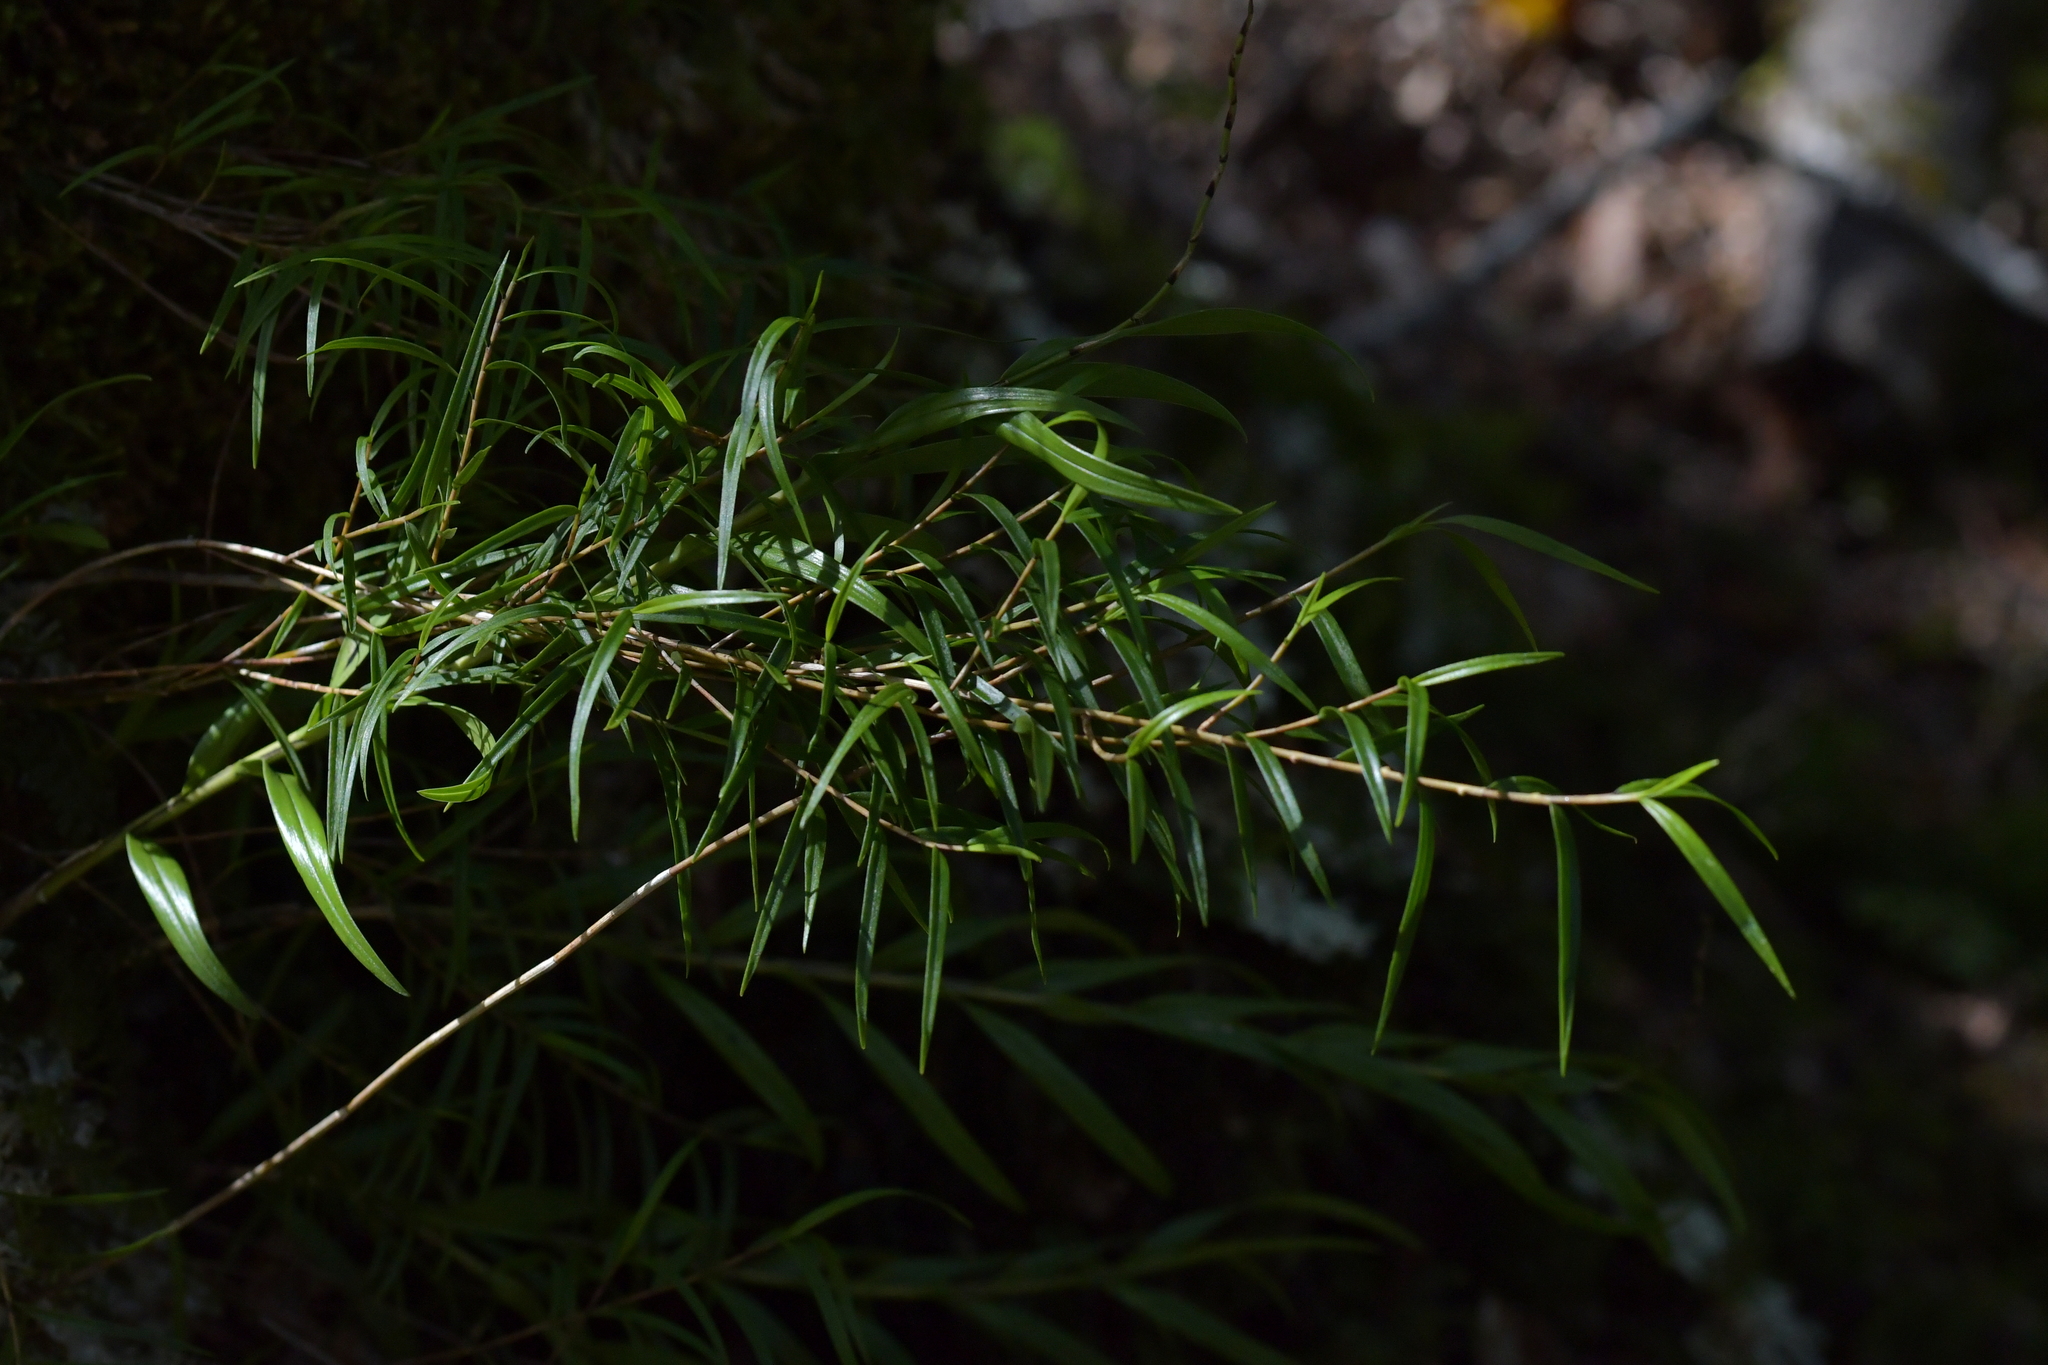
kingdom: Plantae
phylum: Tracheophyta
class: Liliopsida
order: Asparagales
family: Orchidaceae
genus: Dendrobium
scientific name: Dendrobium cunninghamii
